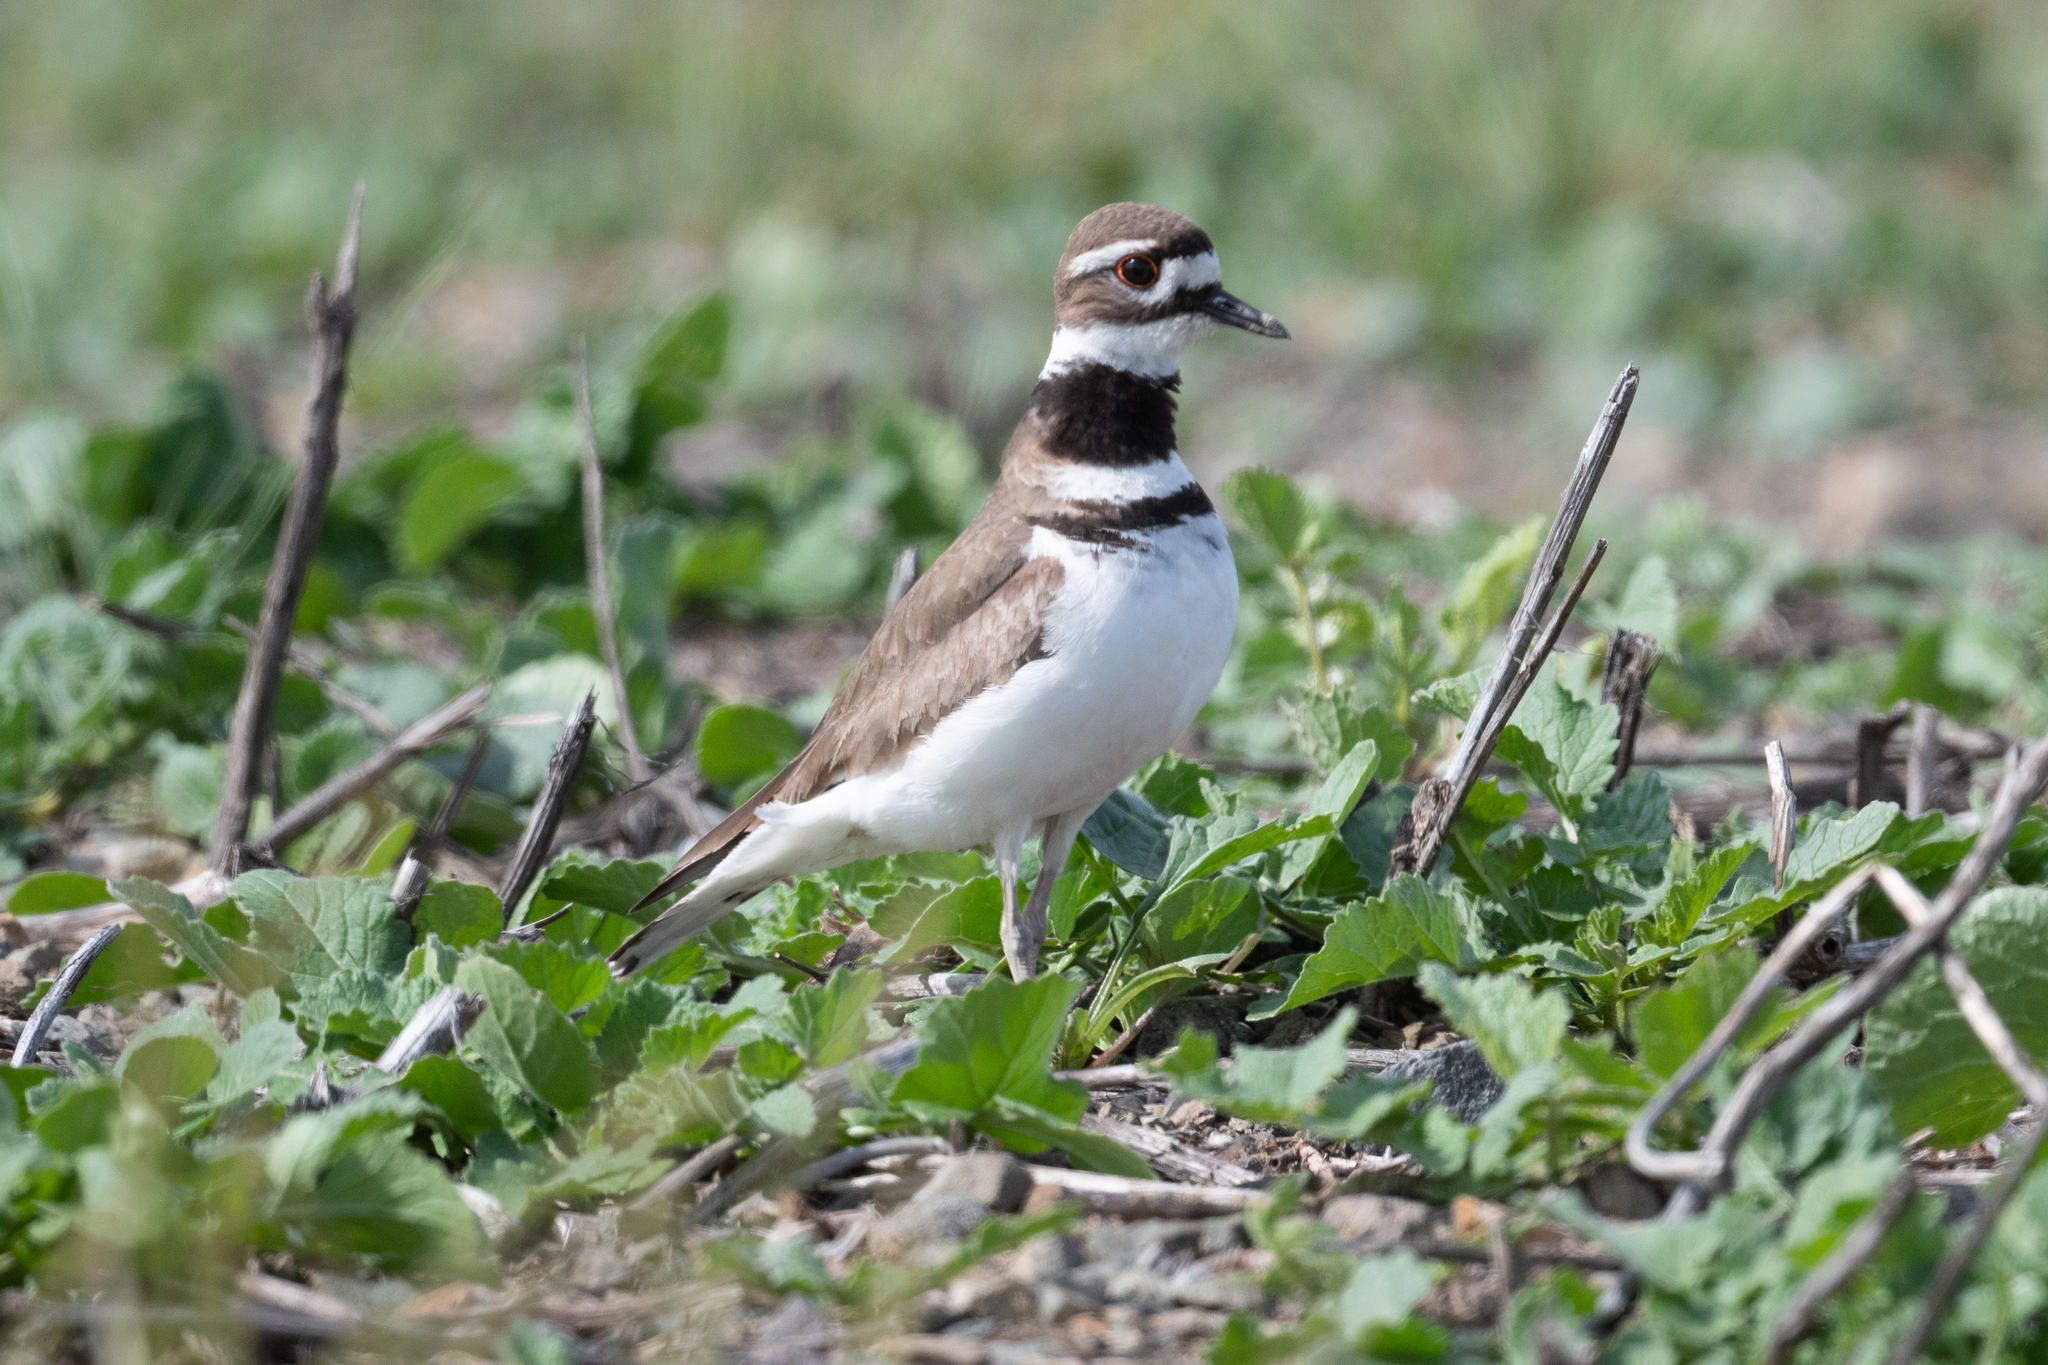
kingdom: Animalia
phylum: Chordata
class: Aves
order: Charadriiformes
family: Charadriidae
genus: Charadrius
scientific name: Charadrius vociferus
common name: Killdeer
